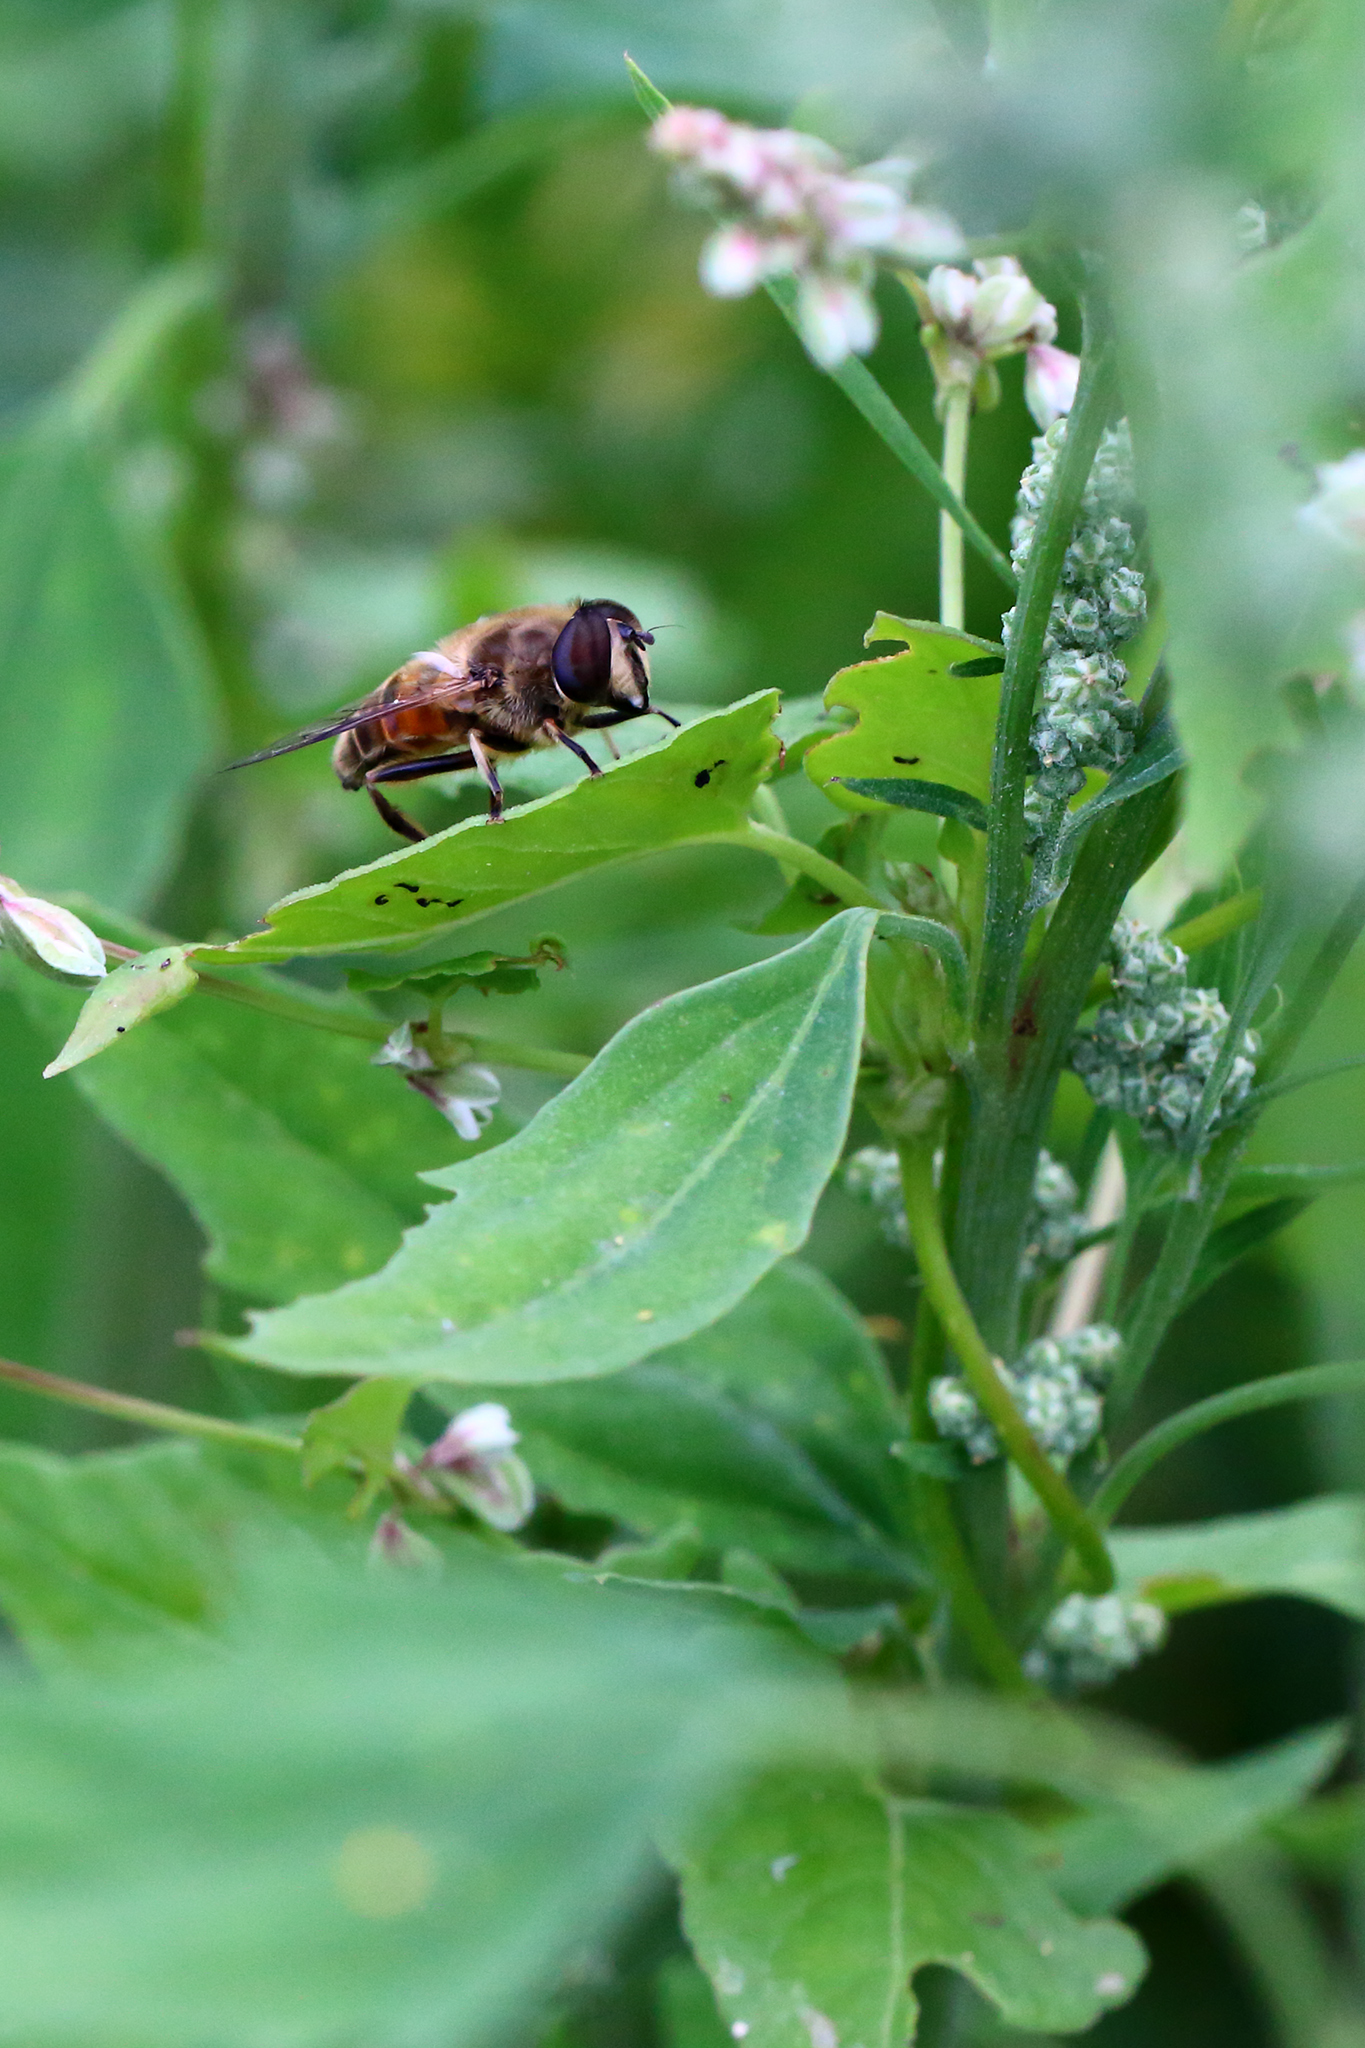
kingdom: Animalia
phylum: Arthropoda
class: Insecta
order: Diptera
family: Syrphidae
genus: Eristalis
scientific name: Eristalis tenax
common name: Drone fly
